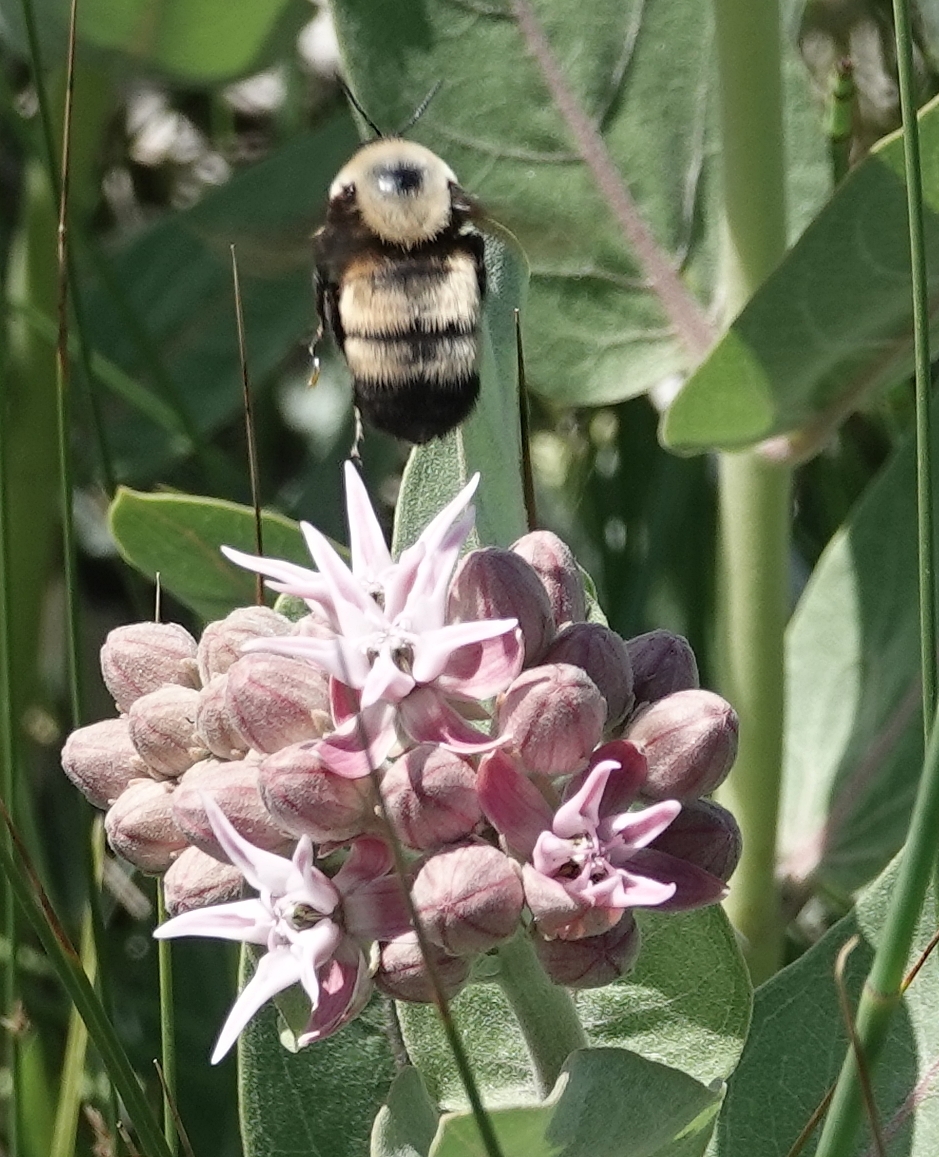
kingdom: Animalia
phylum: Arthropoda
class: Insecta
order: Hymenoptera
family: Apidae
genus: Bombus
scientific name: Bombus nevadensis
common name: Nevada bumble bee
